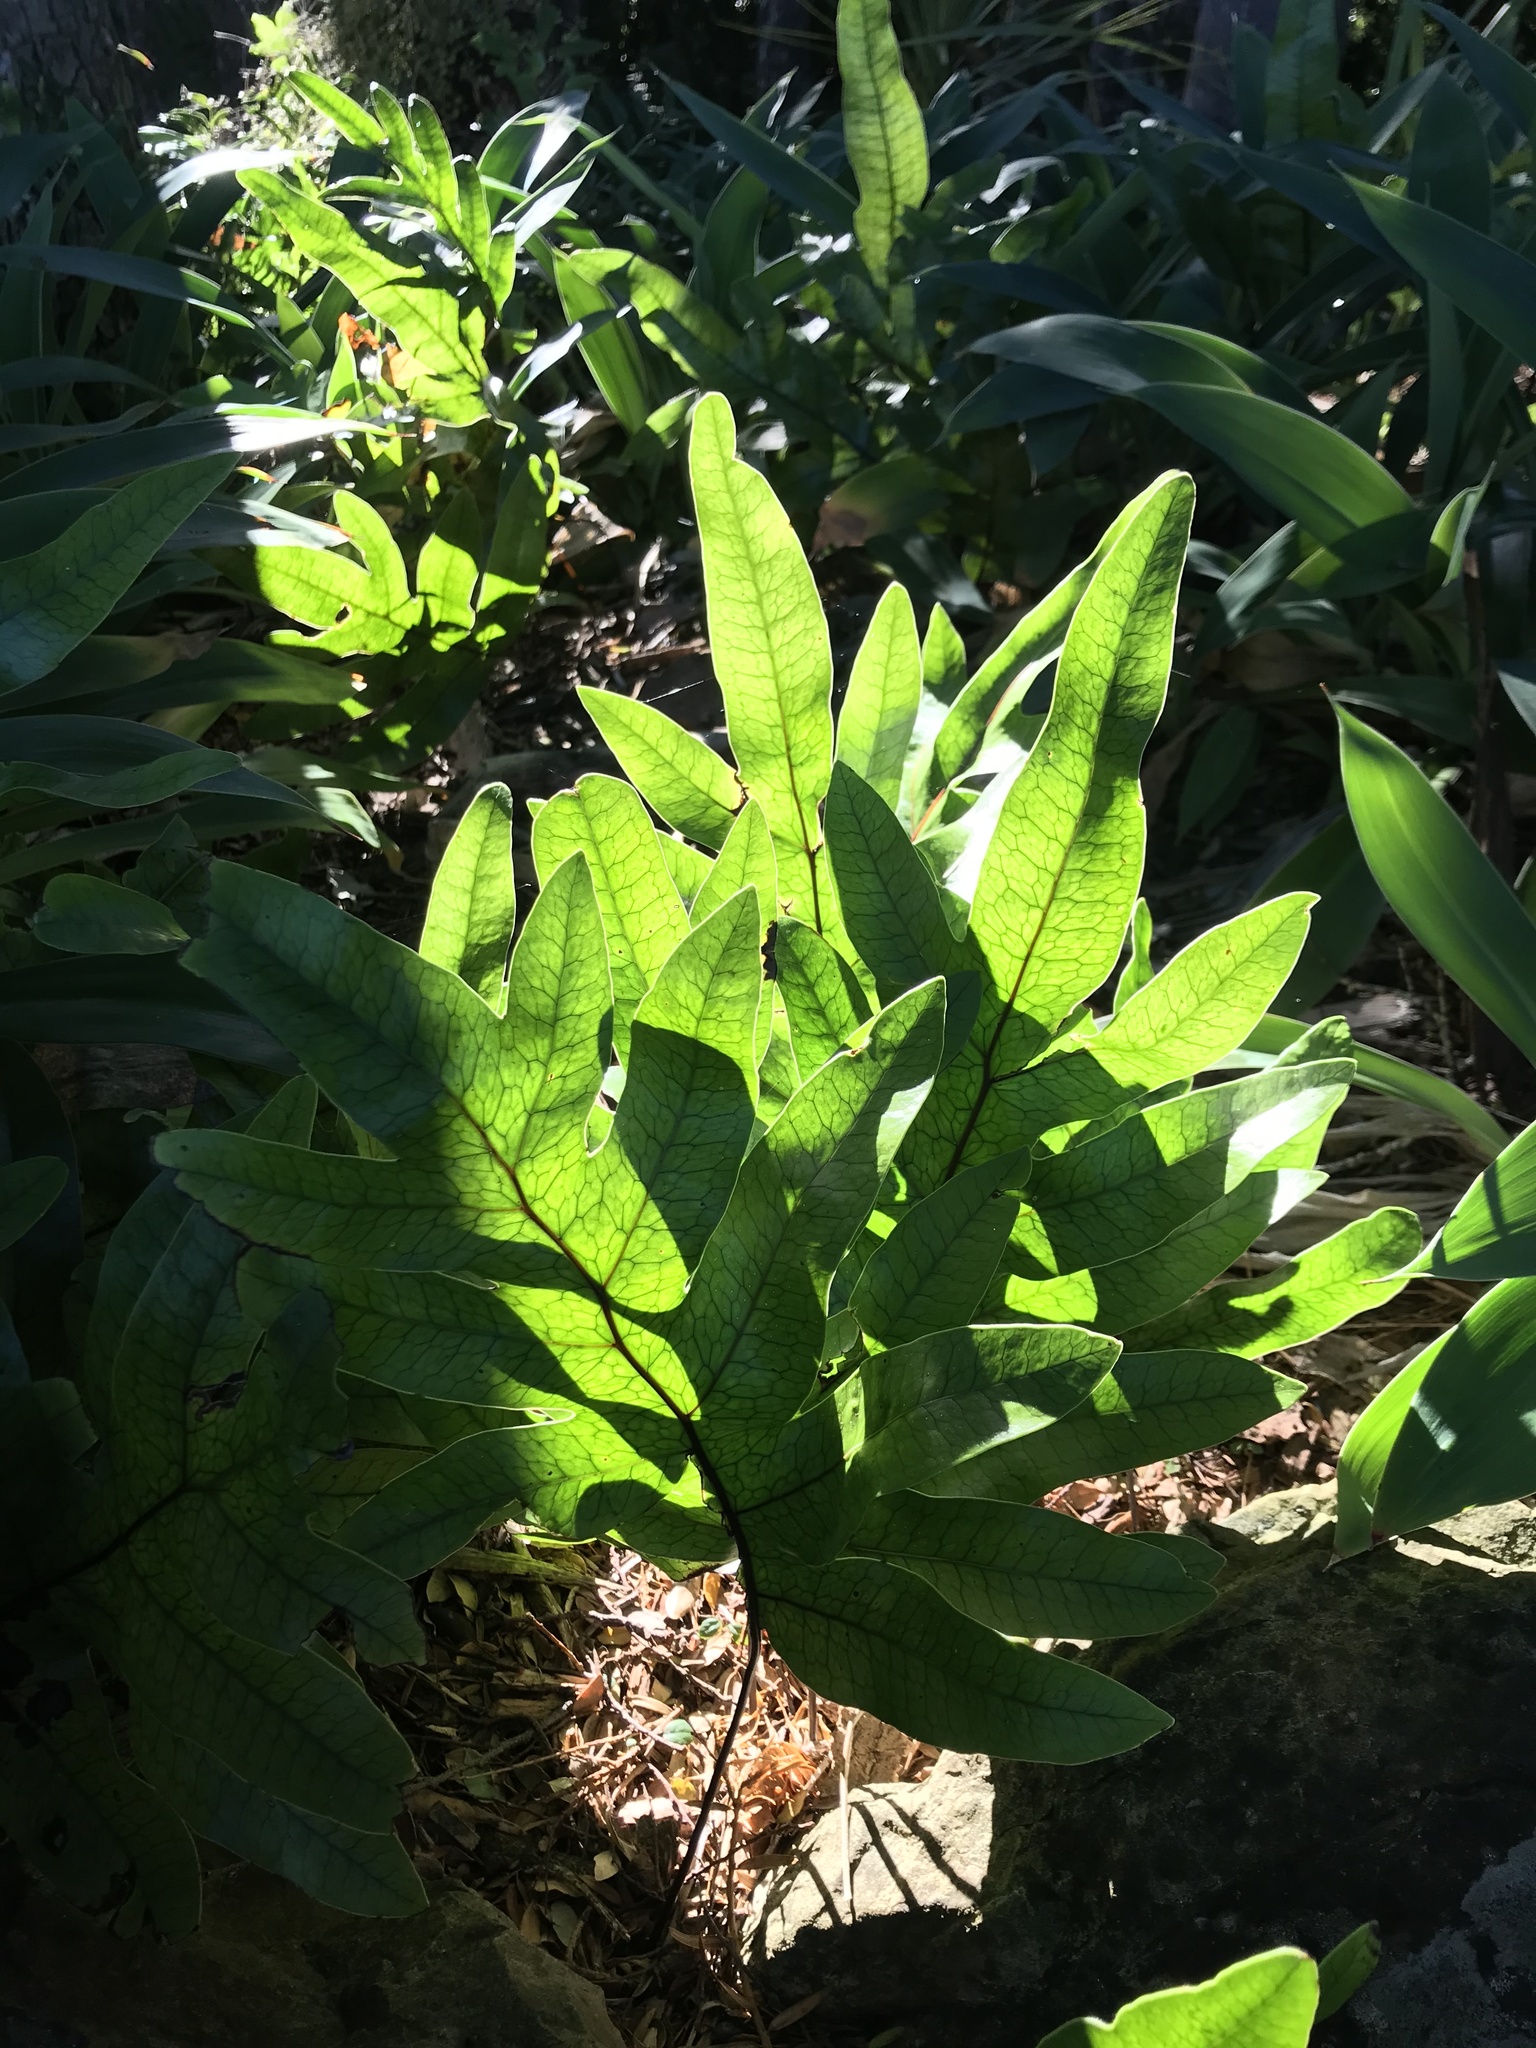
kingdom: Plantae
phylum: Tracheophyta
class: Polypodiopsida
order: Polypodiales
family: Polypodiaceae
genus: Lecanopteris
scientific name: Lecanopteris pustulata
